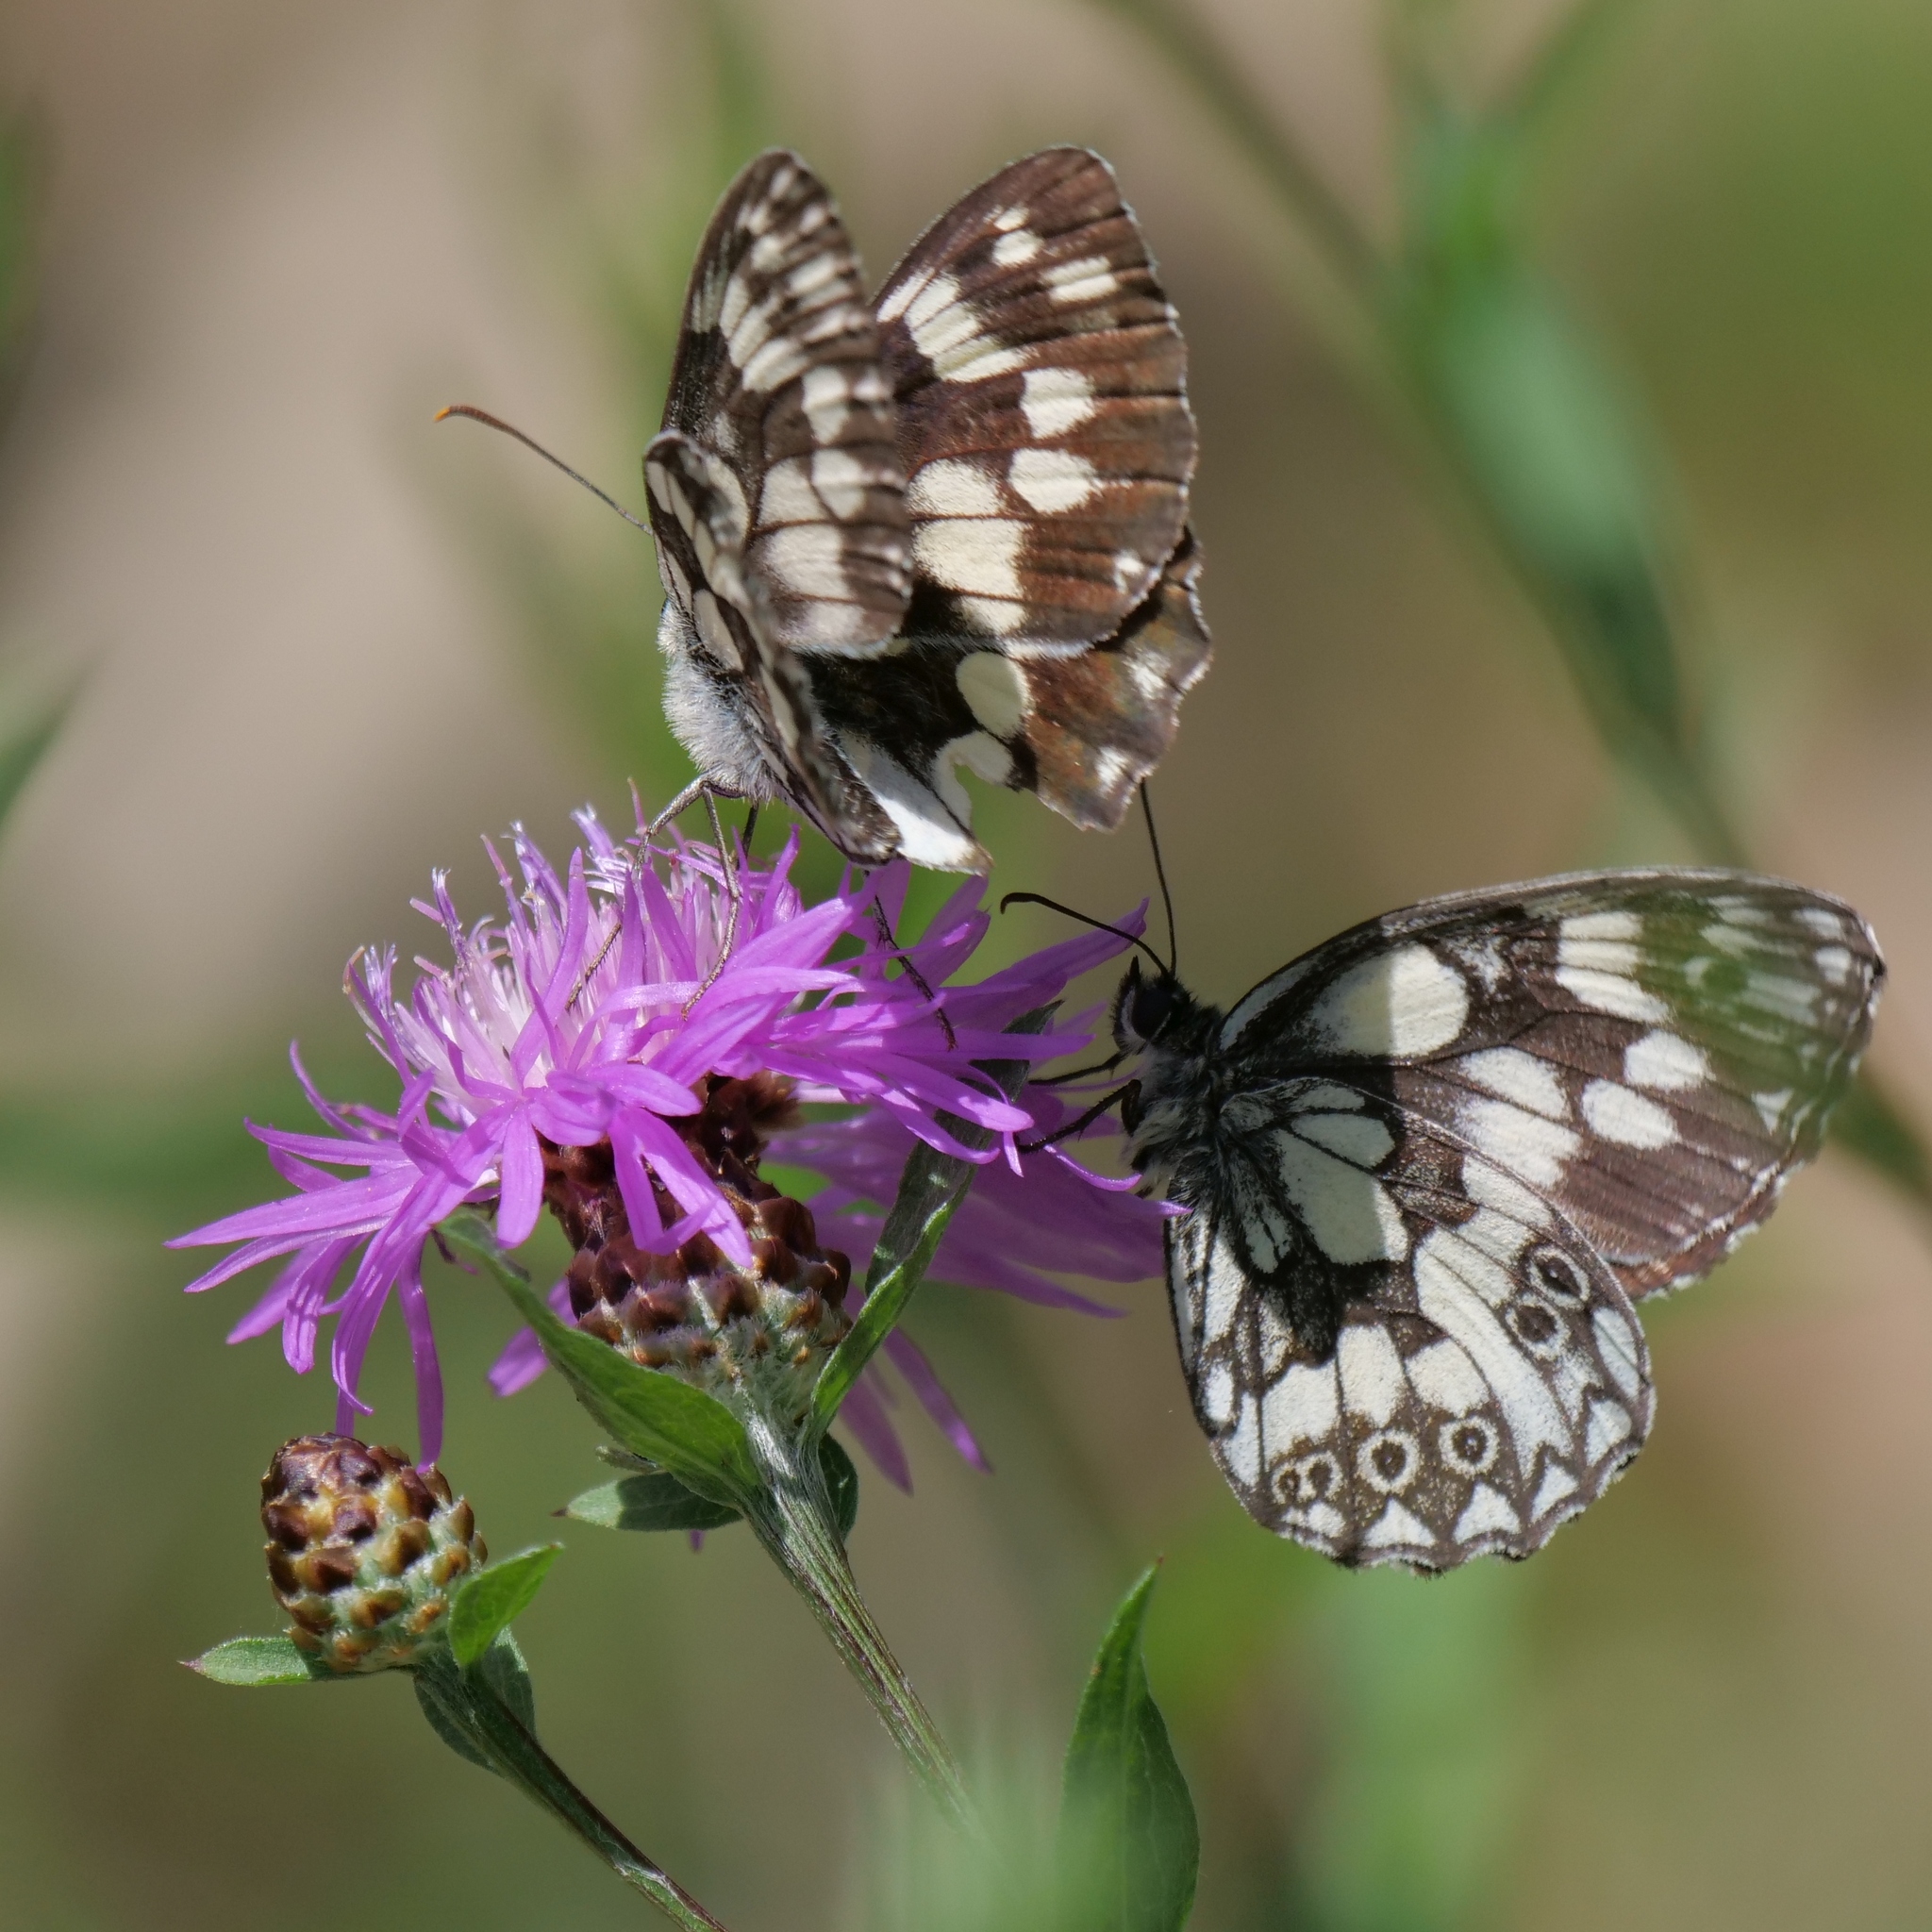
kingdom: Animalia
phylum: Arthropoda
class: Insecta
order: Lepidoptera
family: Nymphalidae
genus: Melanargia
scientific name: Melanargia galathea
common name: Marbled white
